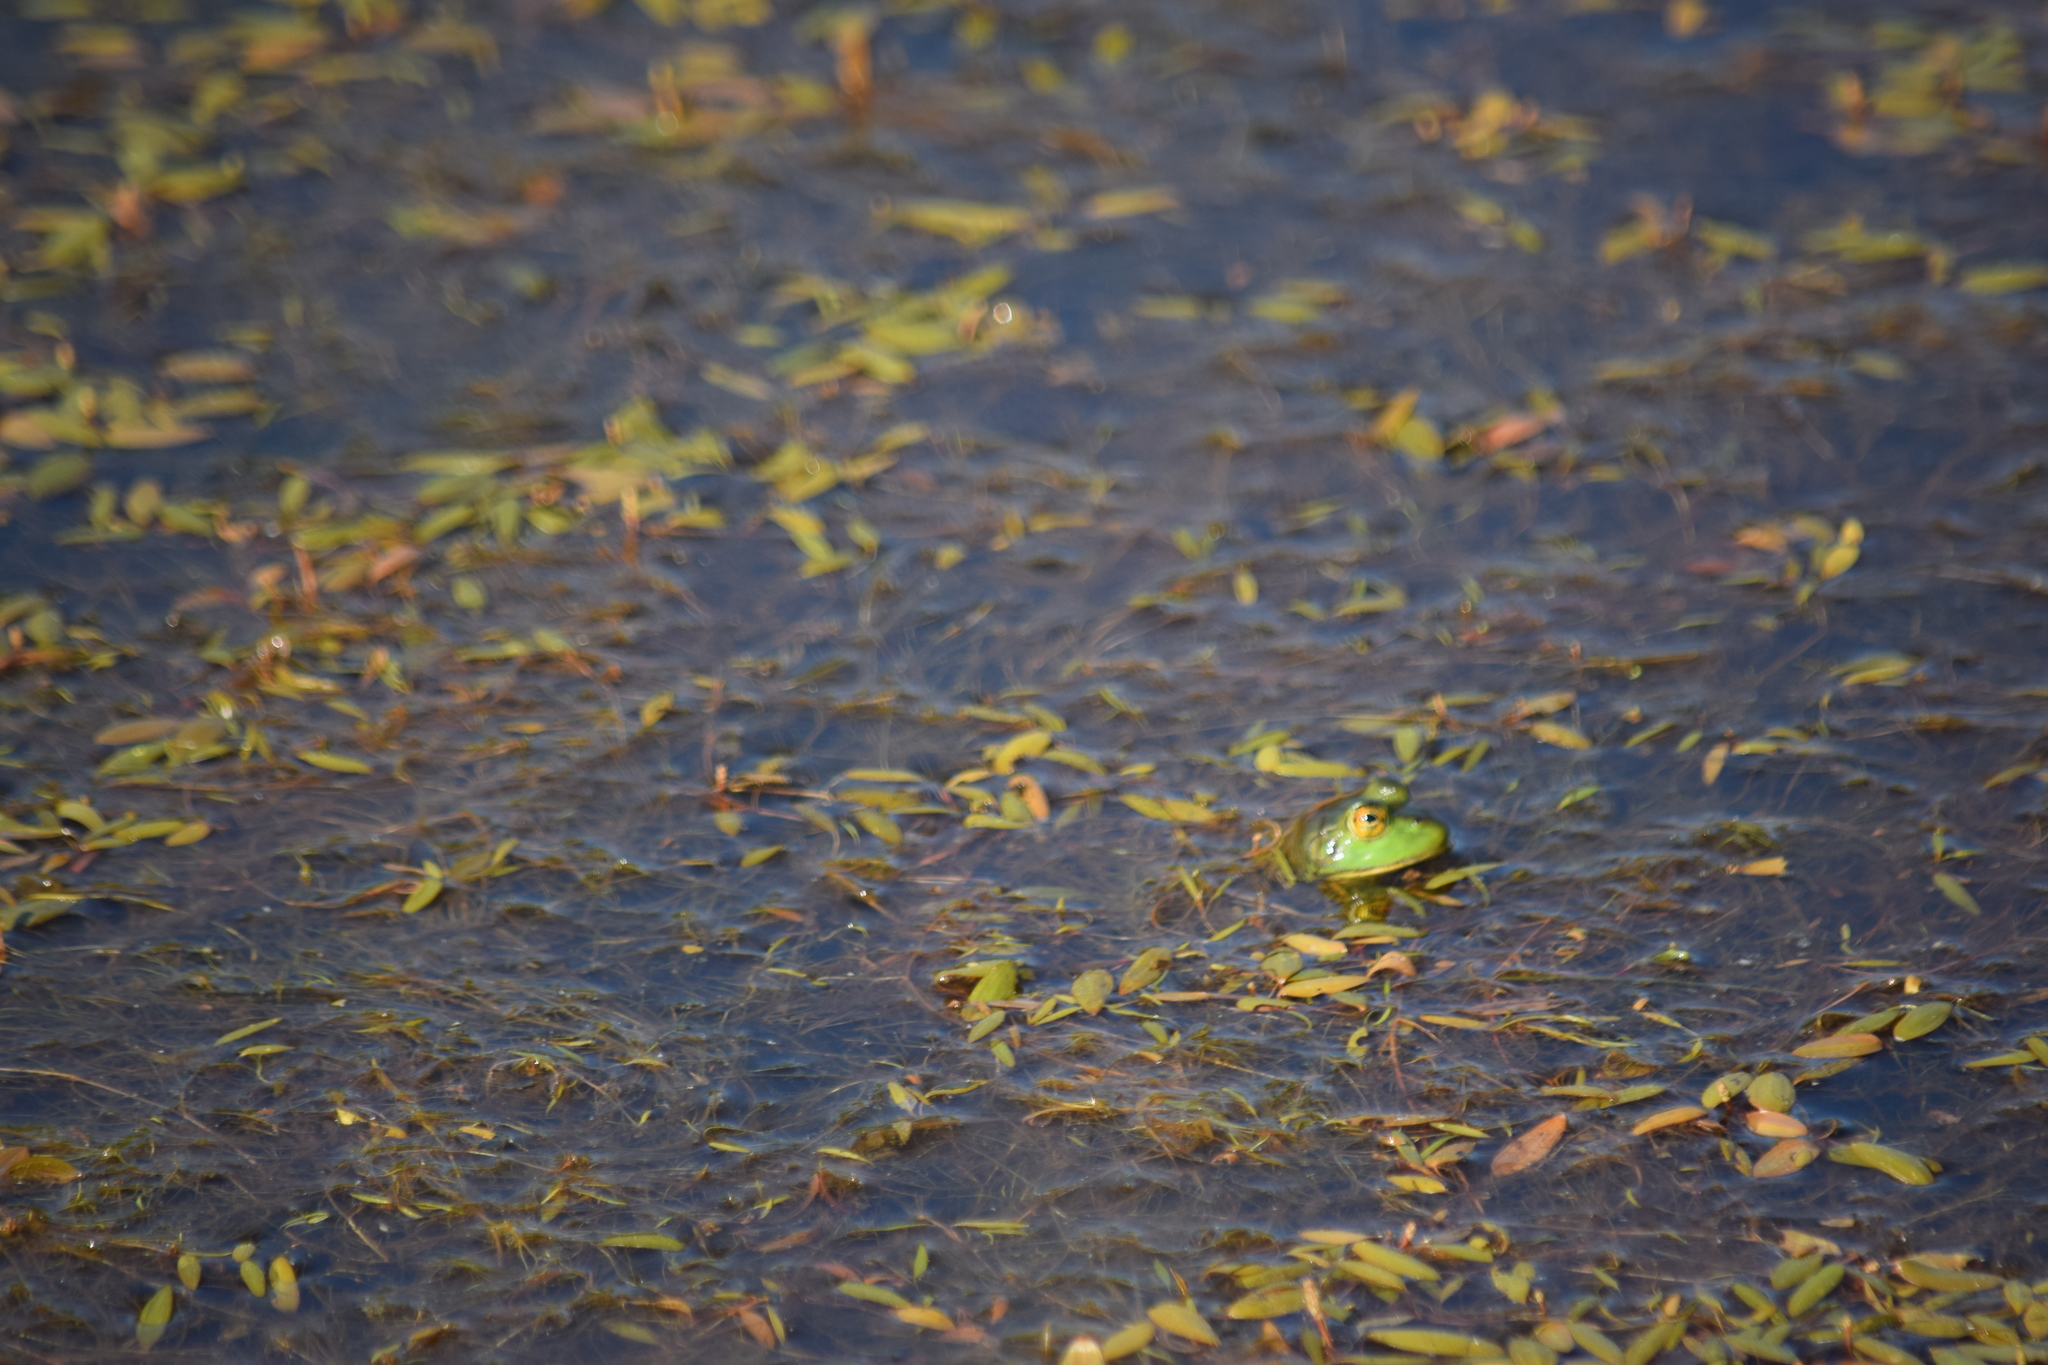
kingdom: Animalia
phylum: Chordata
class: Amphibia
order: Anura
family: Ranidae
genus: Lithobates
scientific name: Lithobates catesbeianus
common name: American bullfrog
